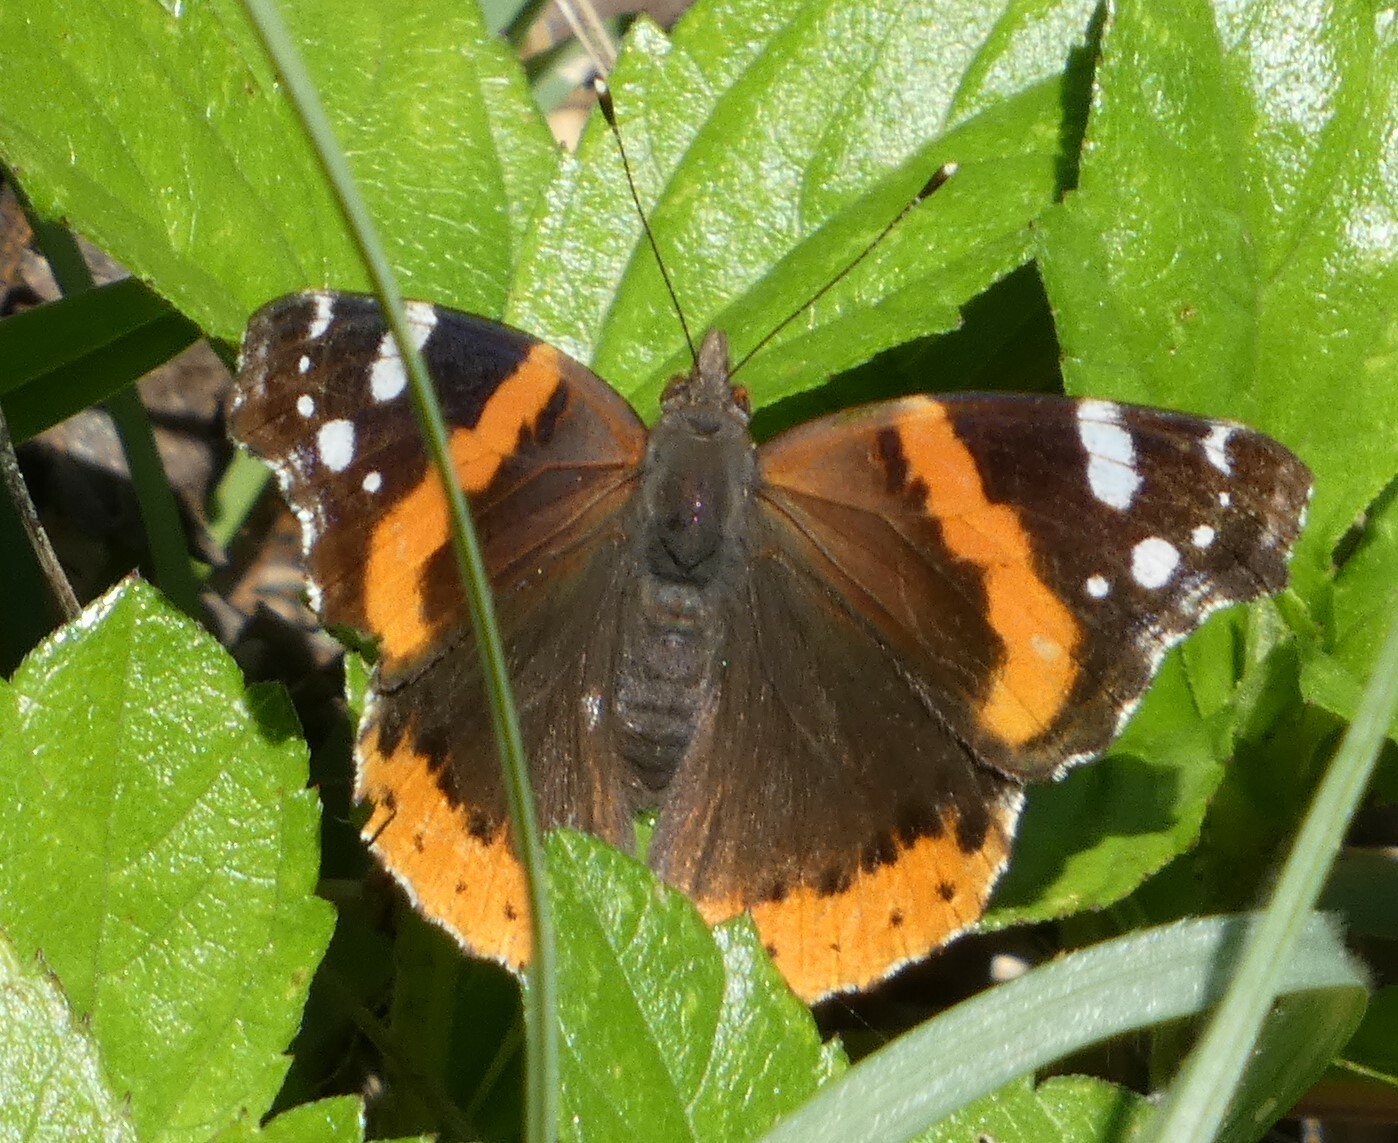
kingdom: Animalia
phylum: Arthropoda
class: Insecta
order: Lepidoptera
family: Nymphalidae
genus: Vanessa
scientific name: Vanessa atalanta
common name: Red admiral
